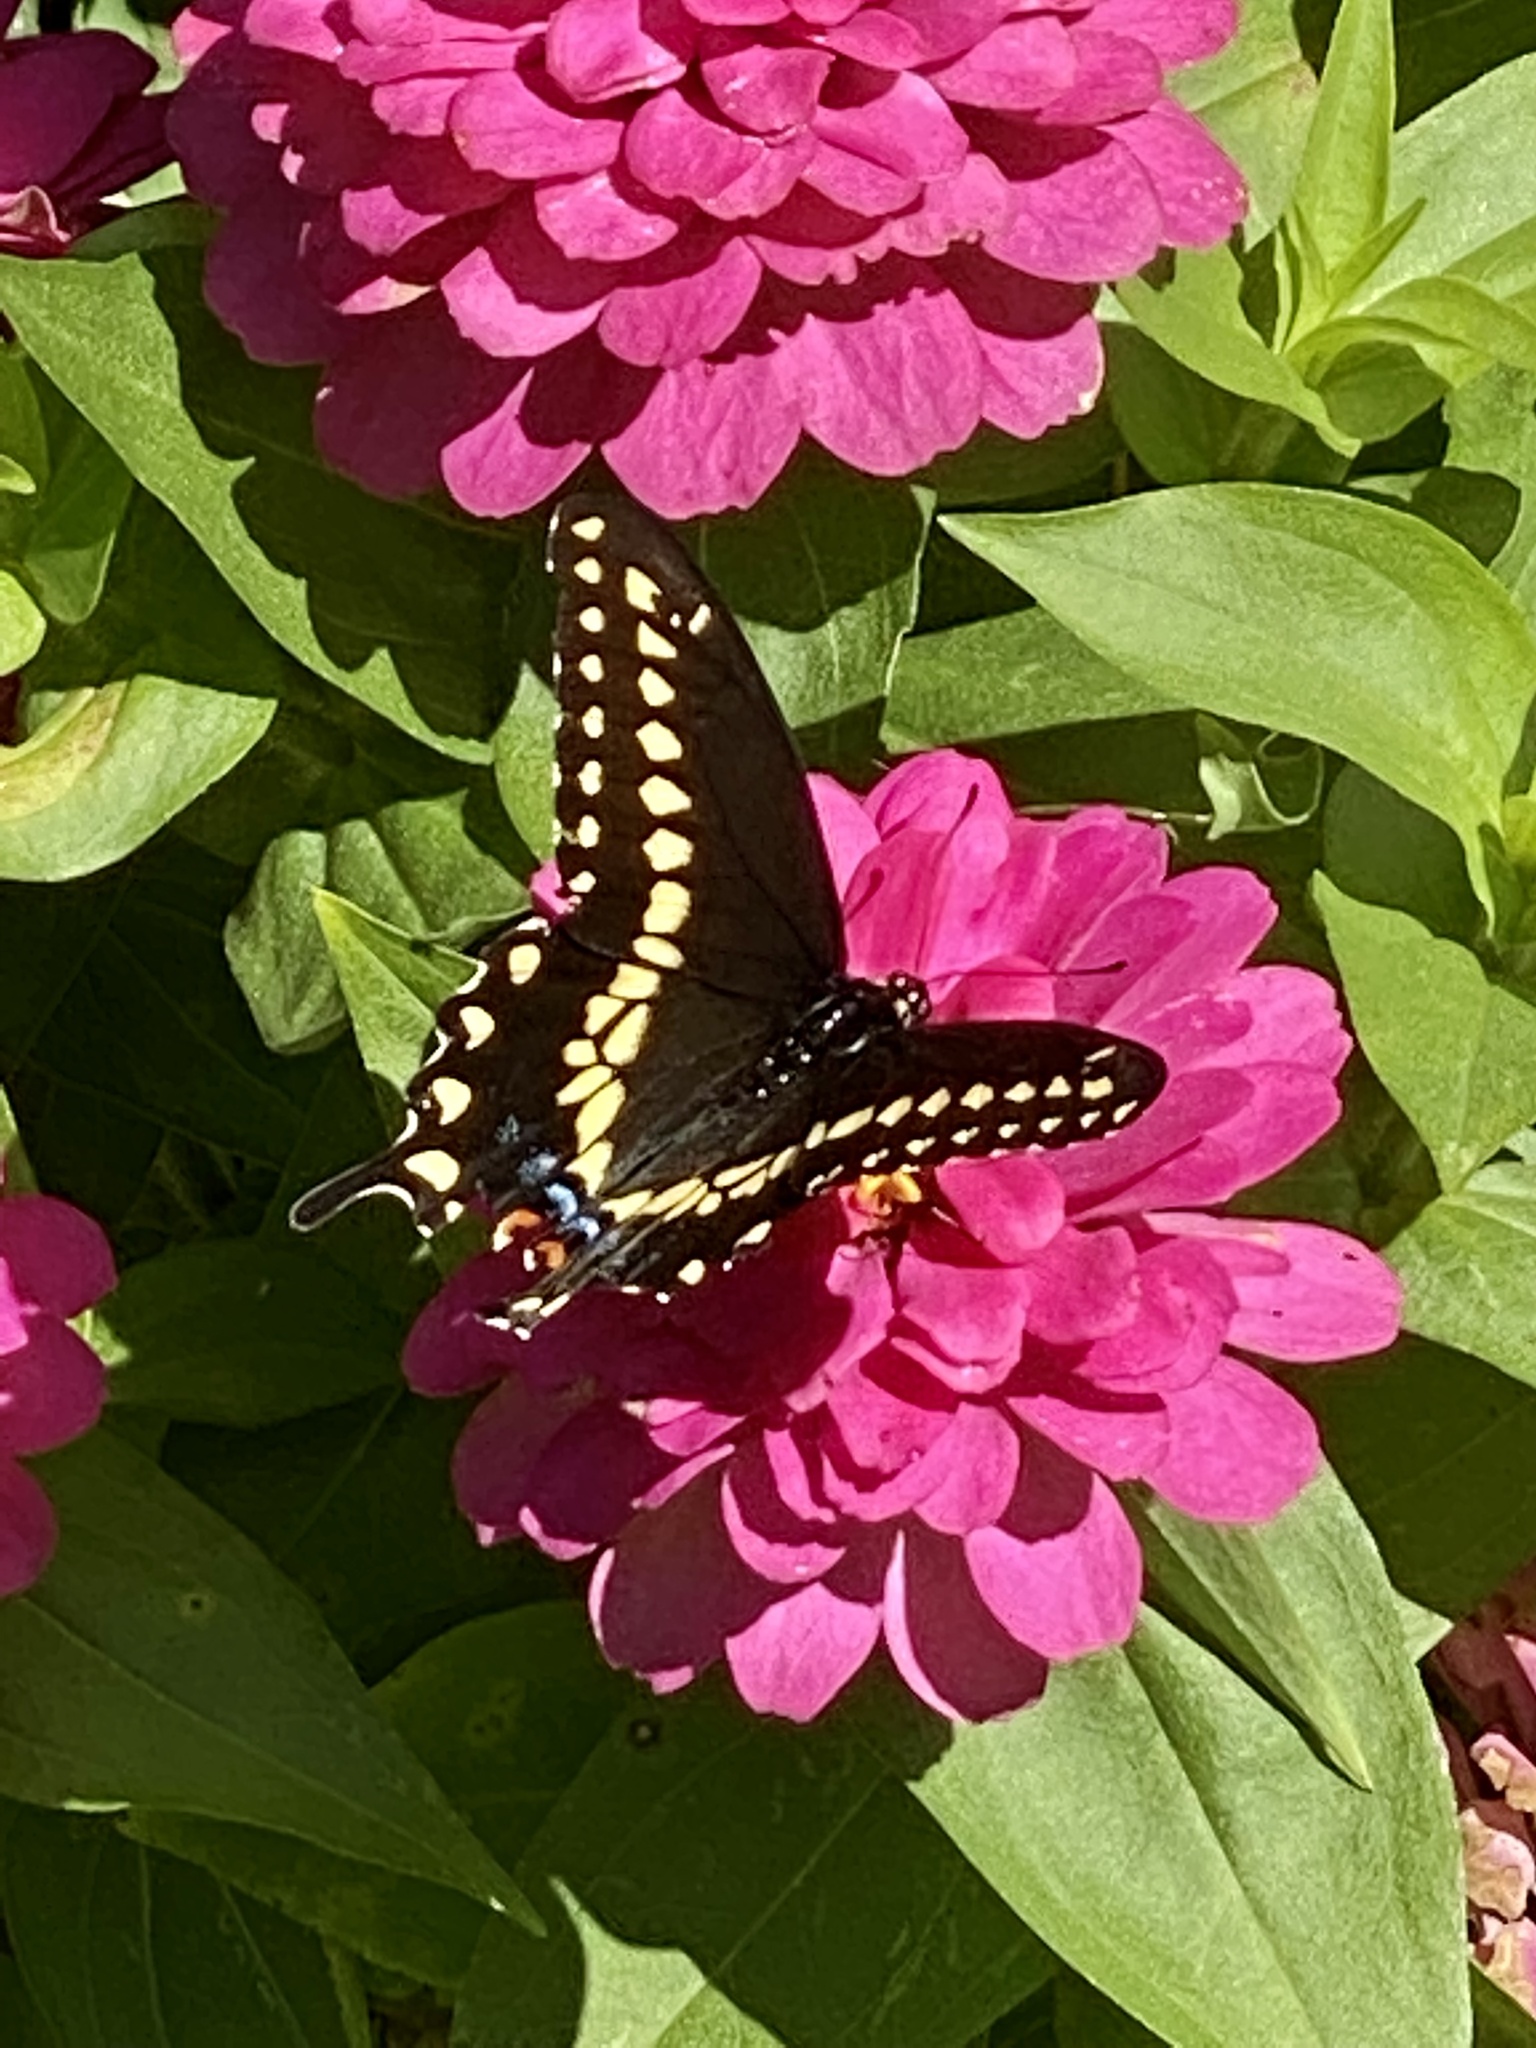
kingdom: Animalia
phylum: Arthropoda
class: Insecta
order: Lepidoptera
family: Papilionidae
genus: Papilio
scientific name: Papilio polyxenes
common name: Black swallowtail
